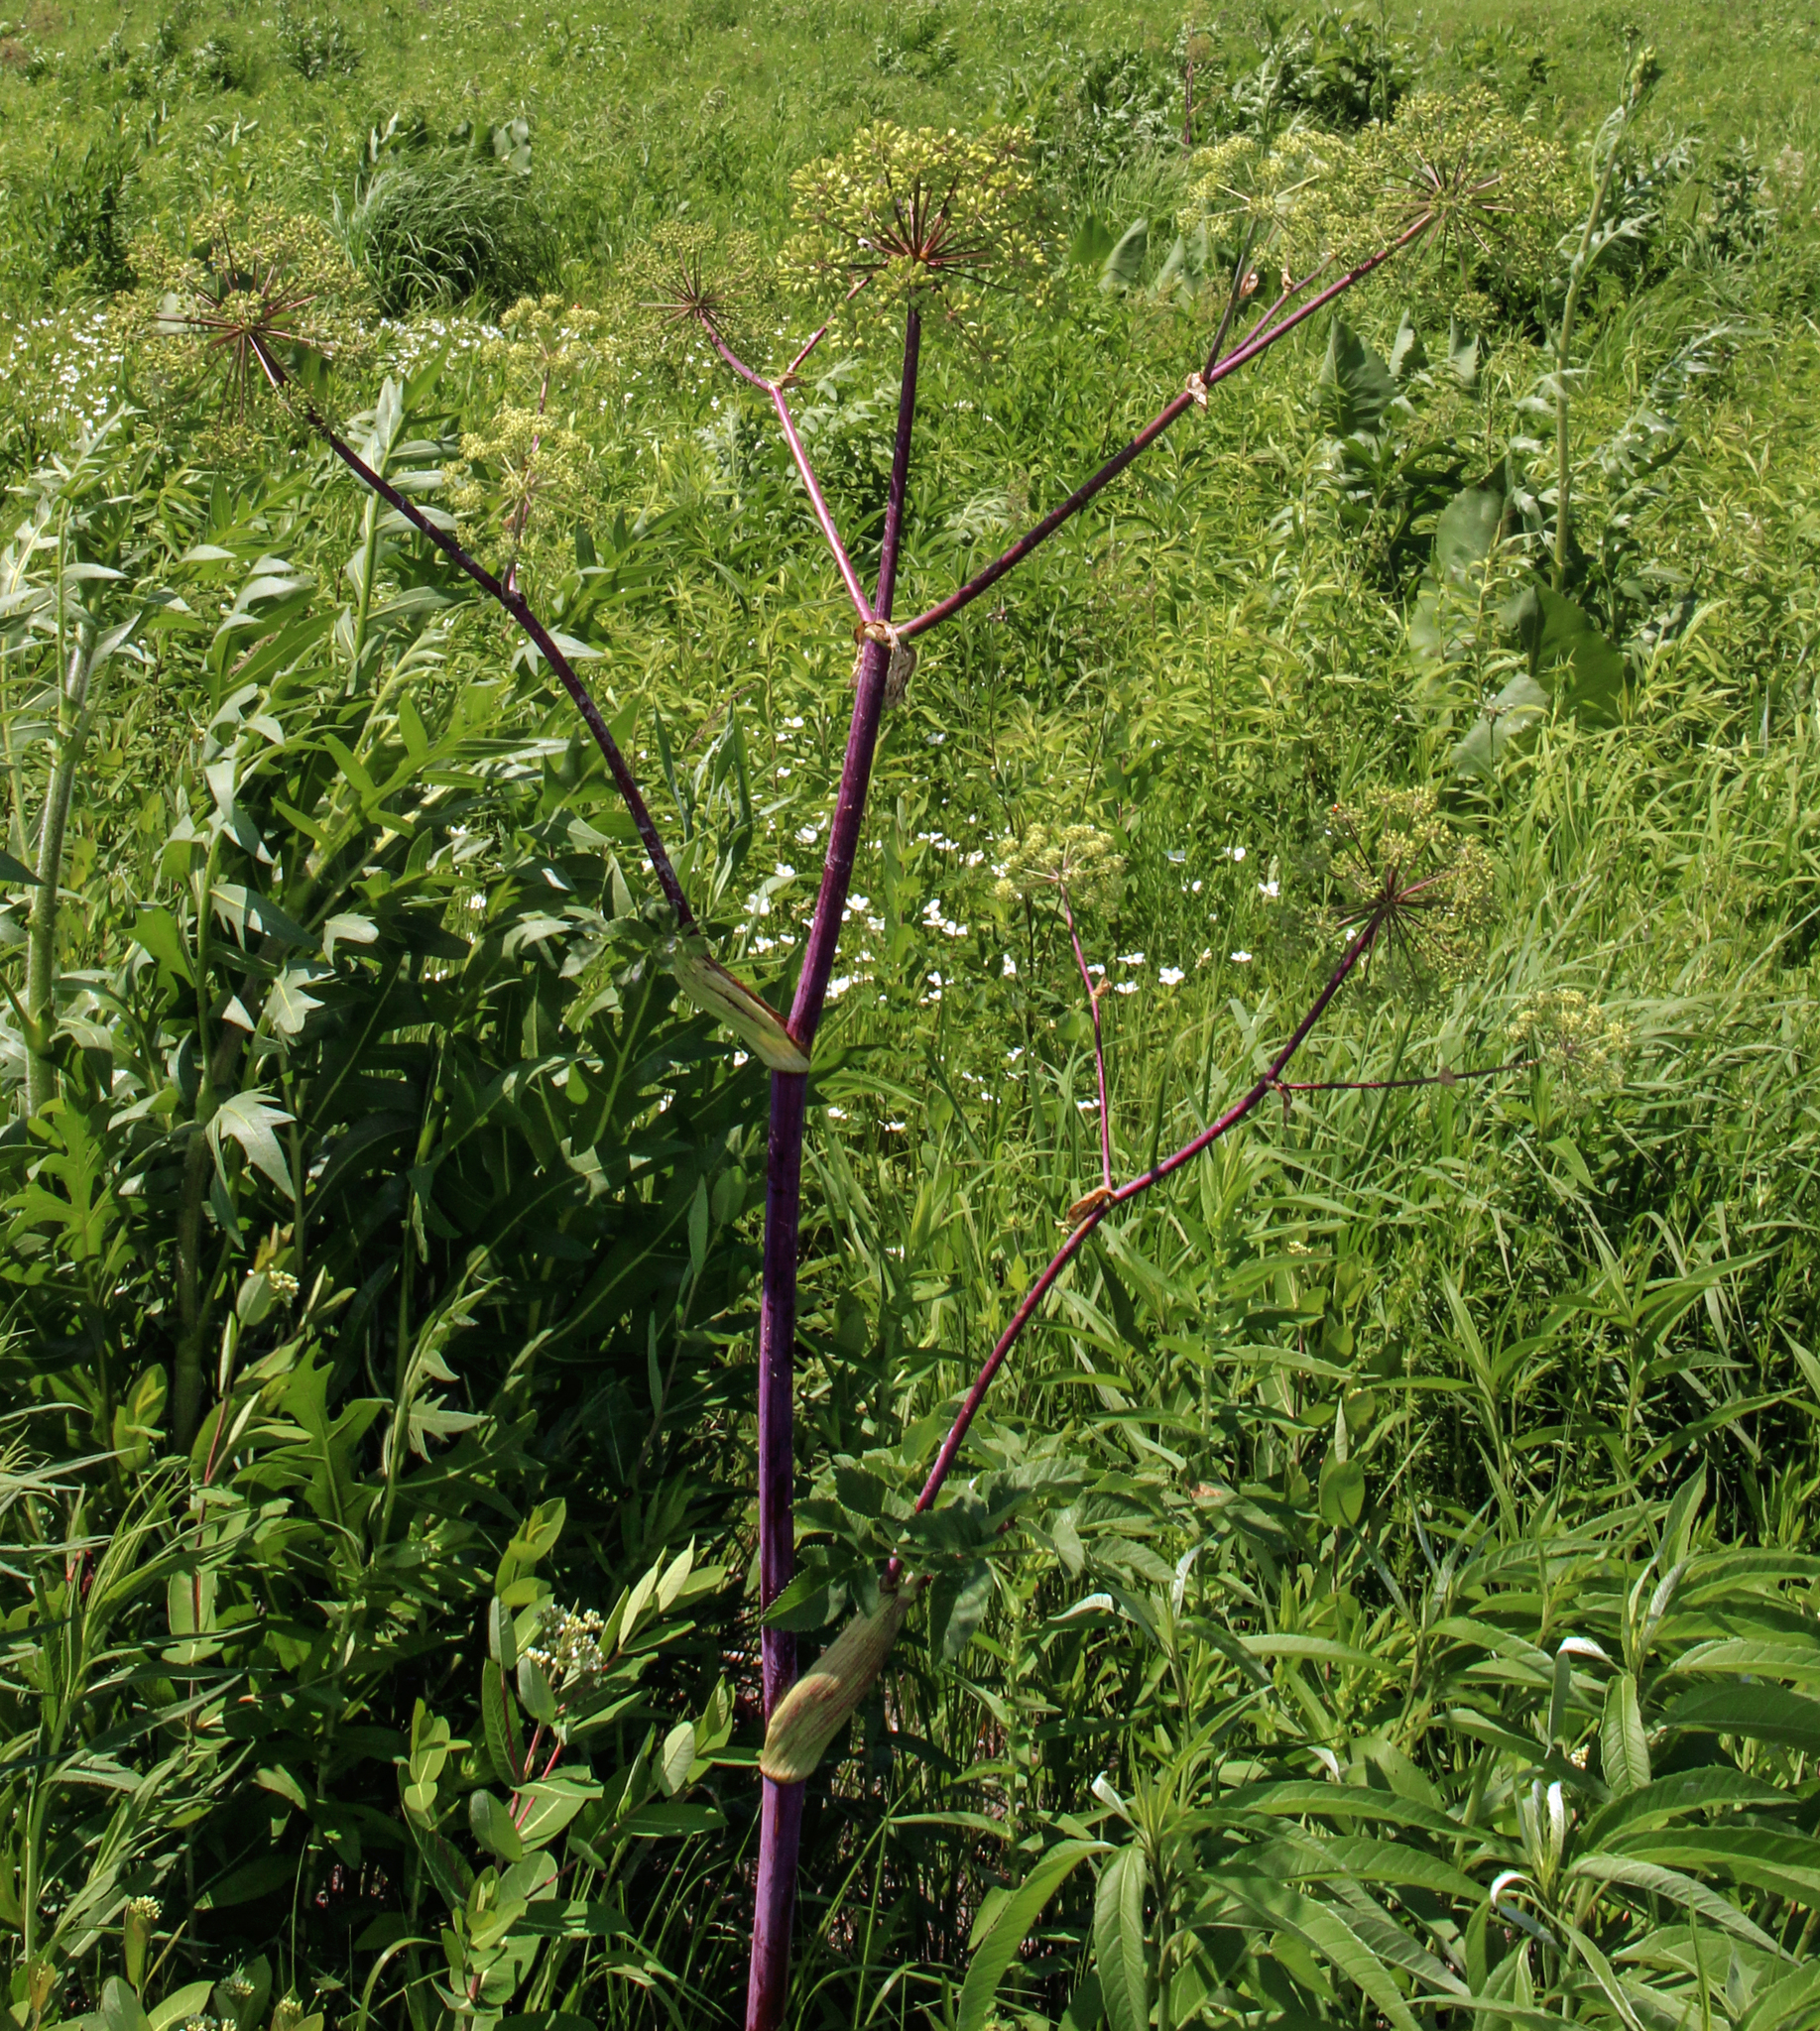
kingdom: Plantae
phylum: Tracheophyta
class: Magnoliopsida
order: Apiales
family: Apiaceae
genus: Angelica
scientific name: Angelica atropurpurea
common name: Great angelica
